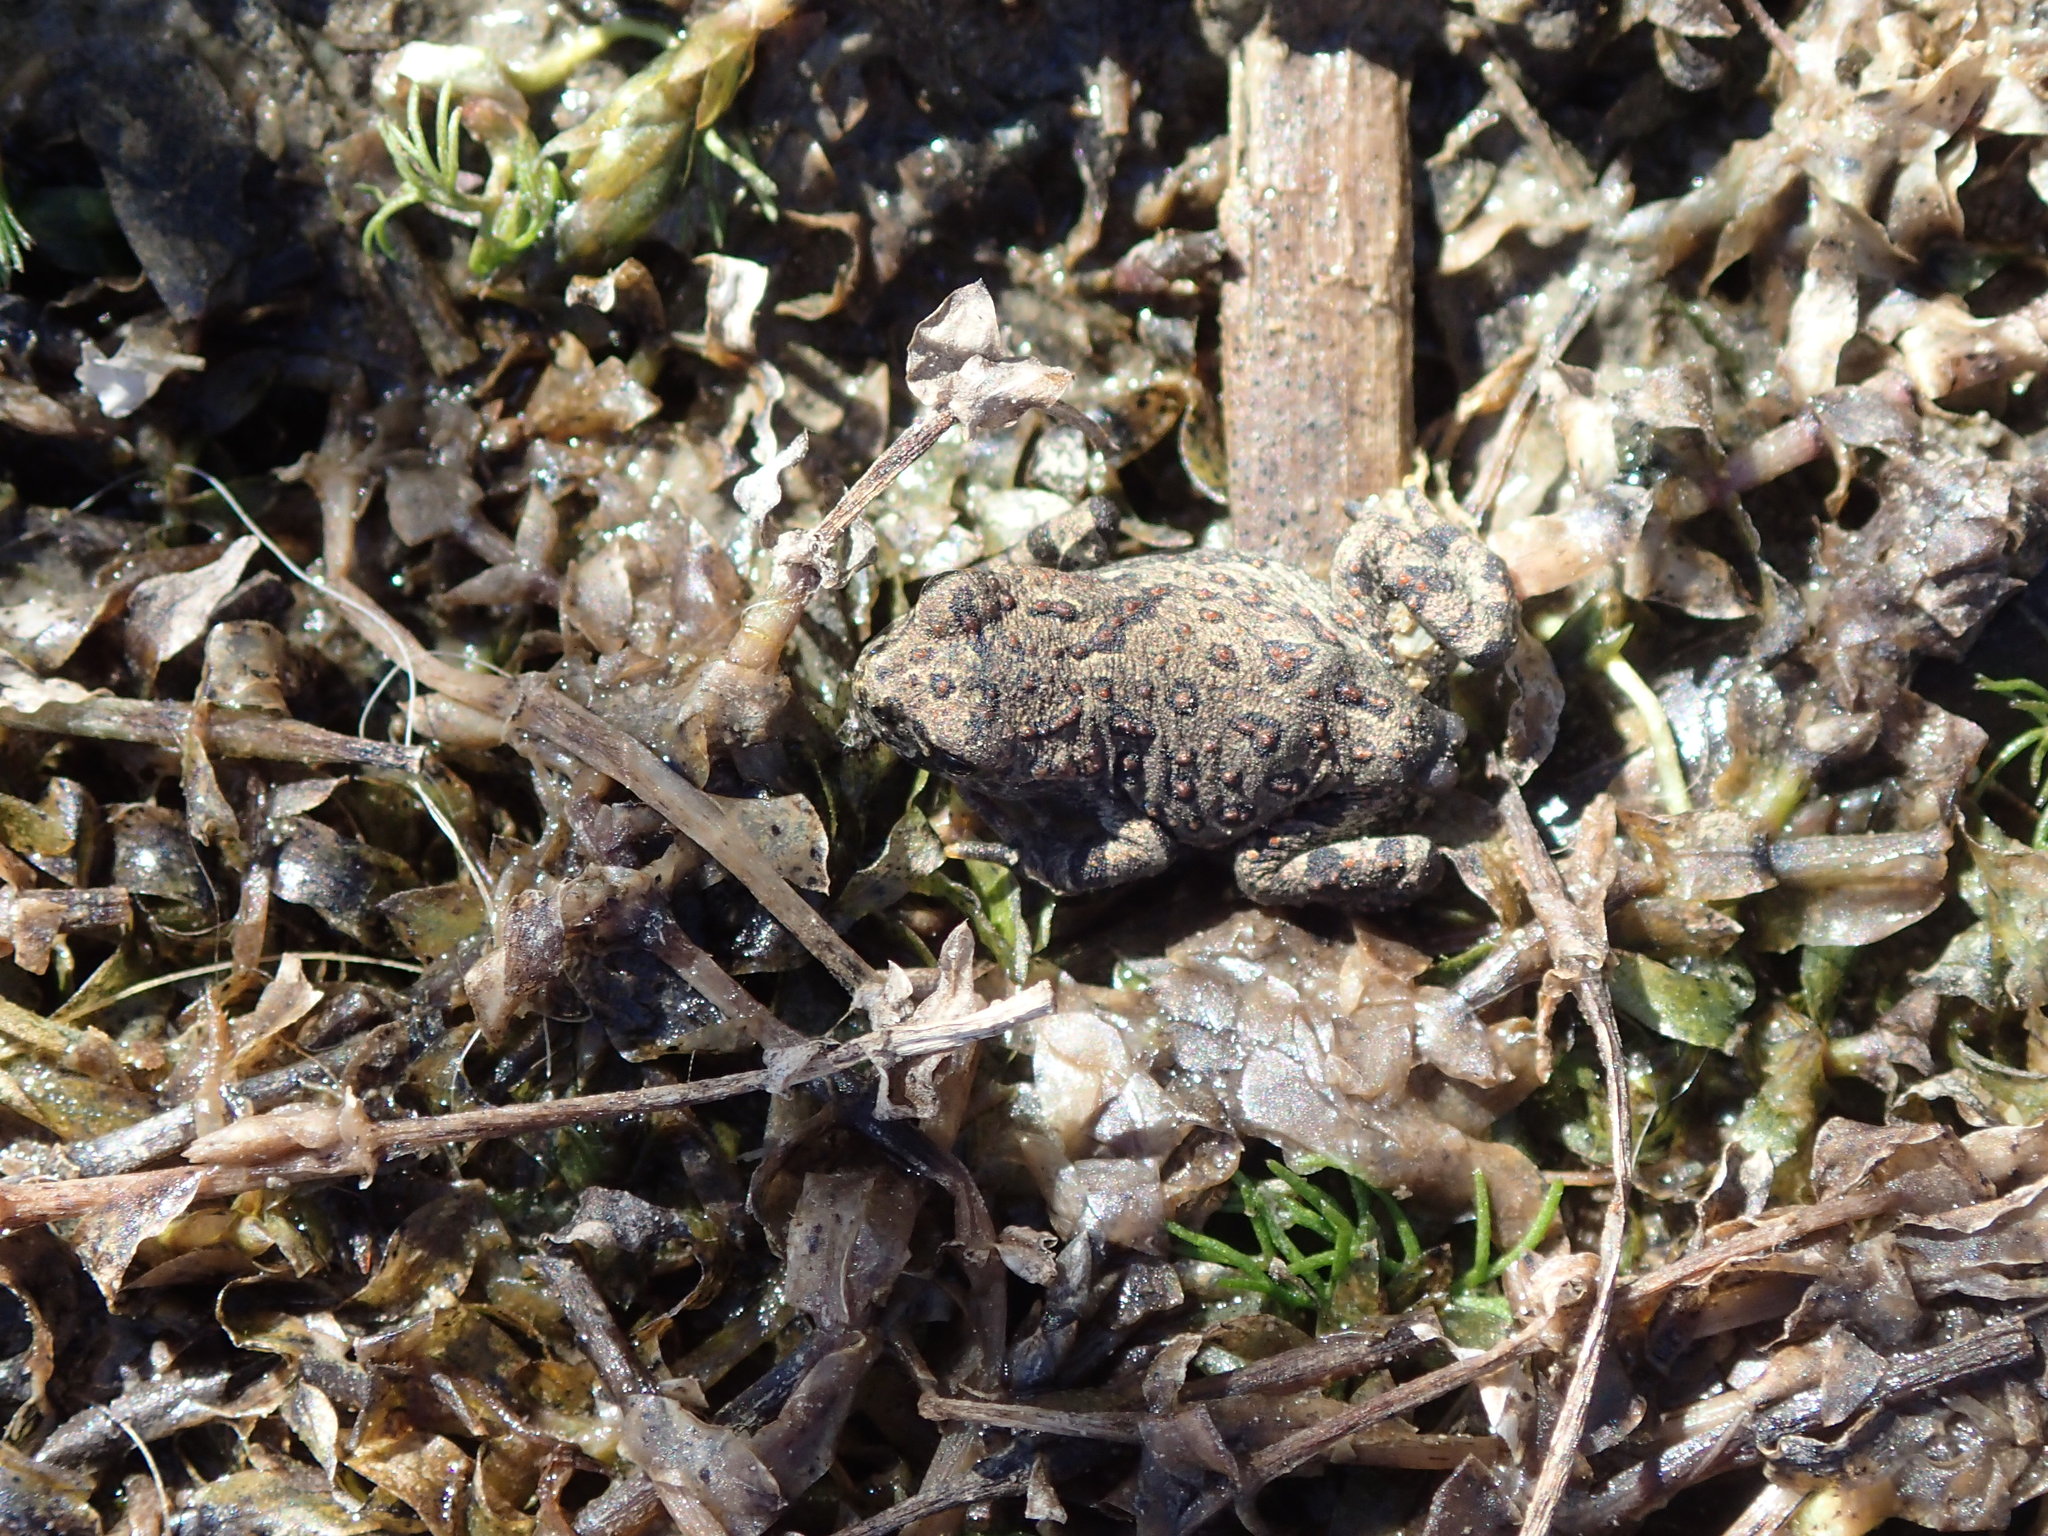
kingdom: Animalia
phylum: Chordata
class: Amphibia
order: Anura
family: Bufonidae
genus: Anaxyrus
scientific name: Anaxyrus boreas
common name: Western toad
